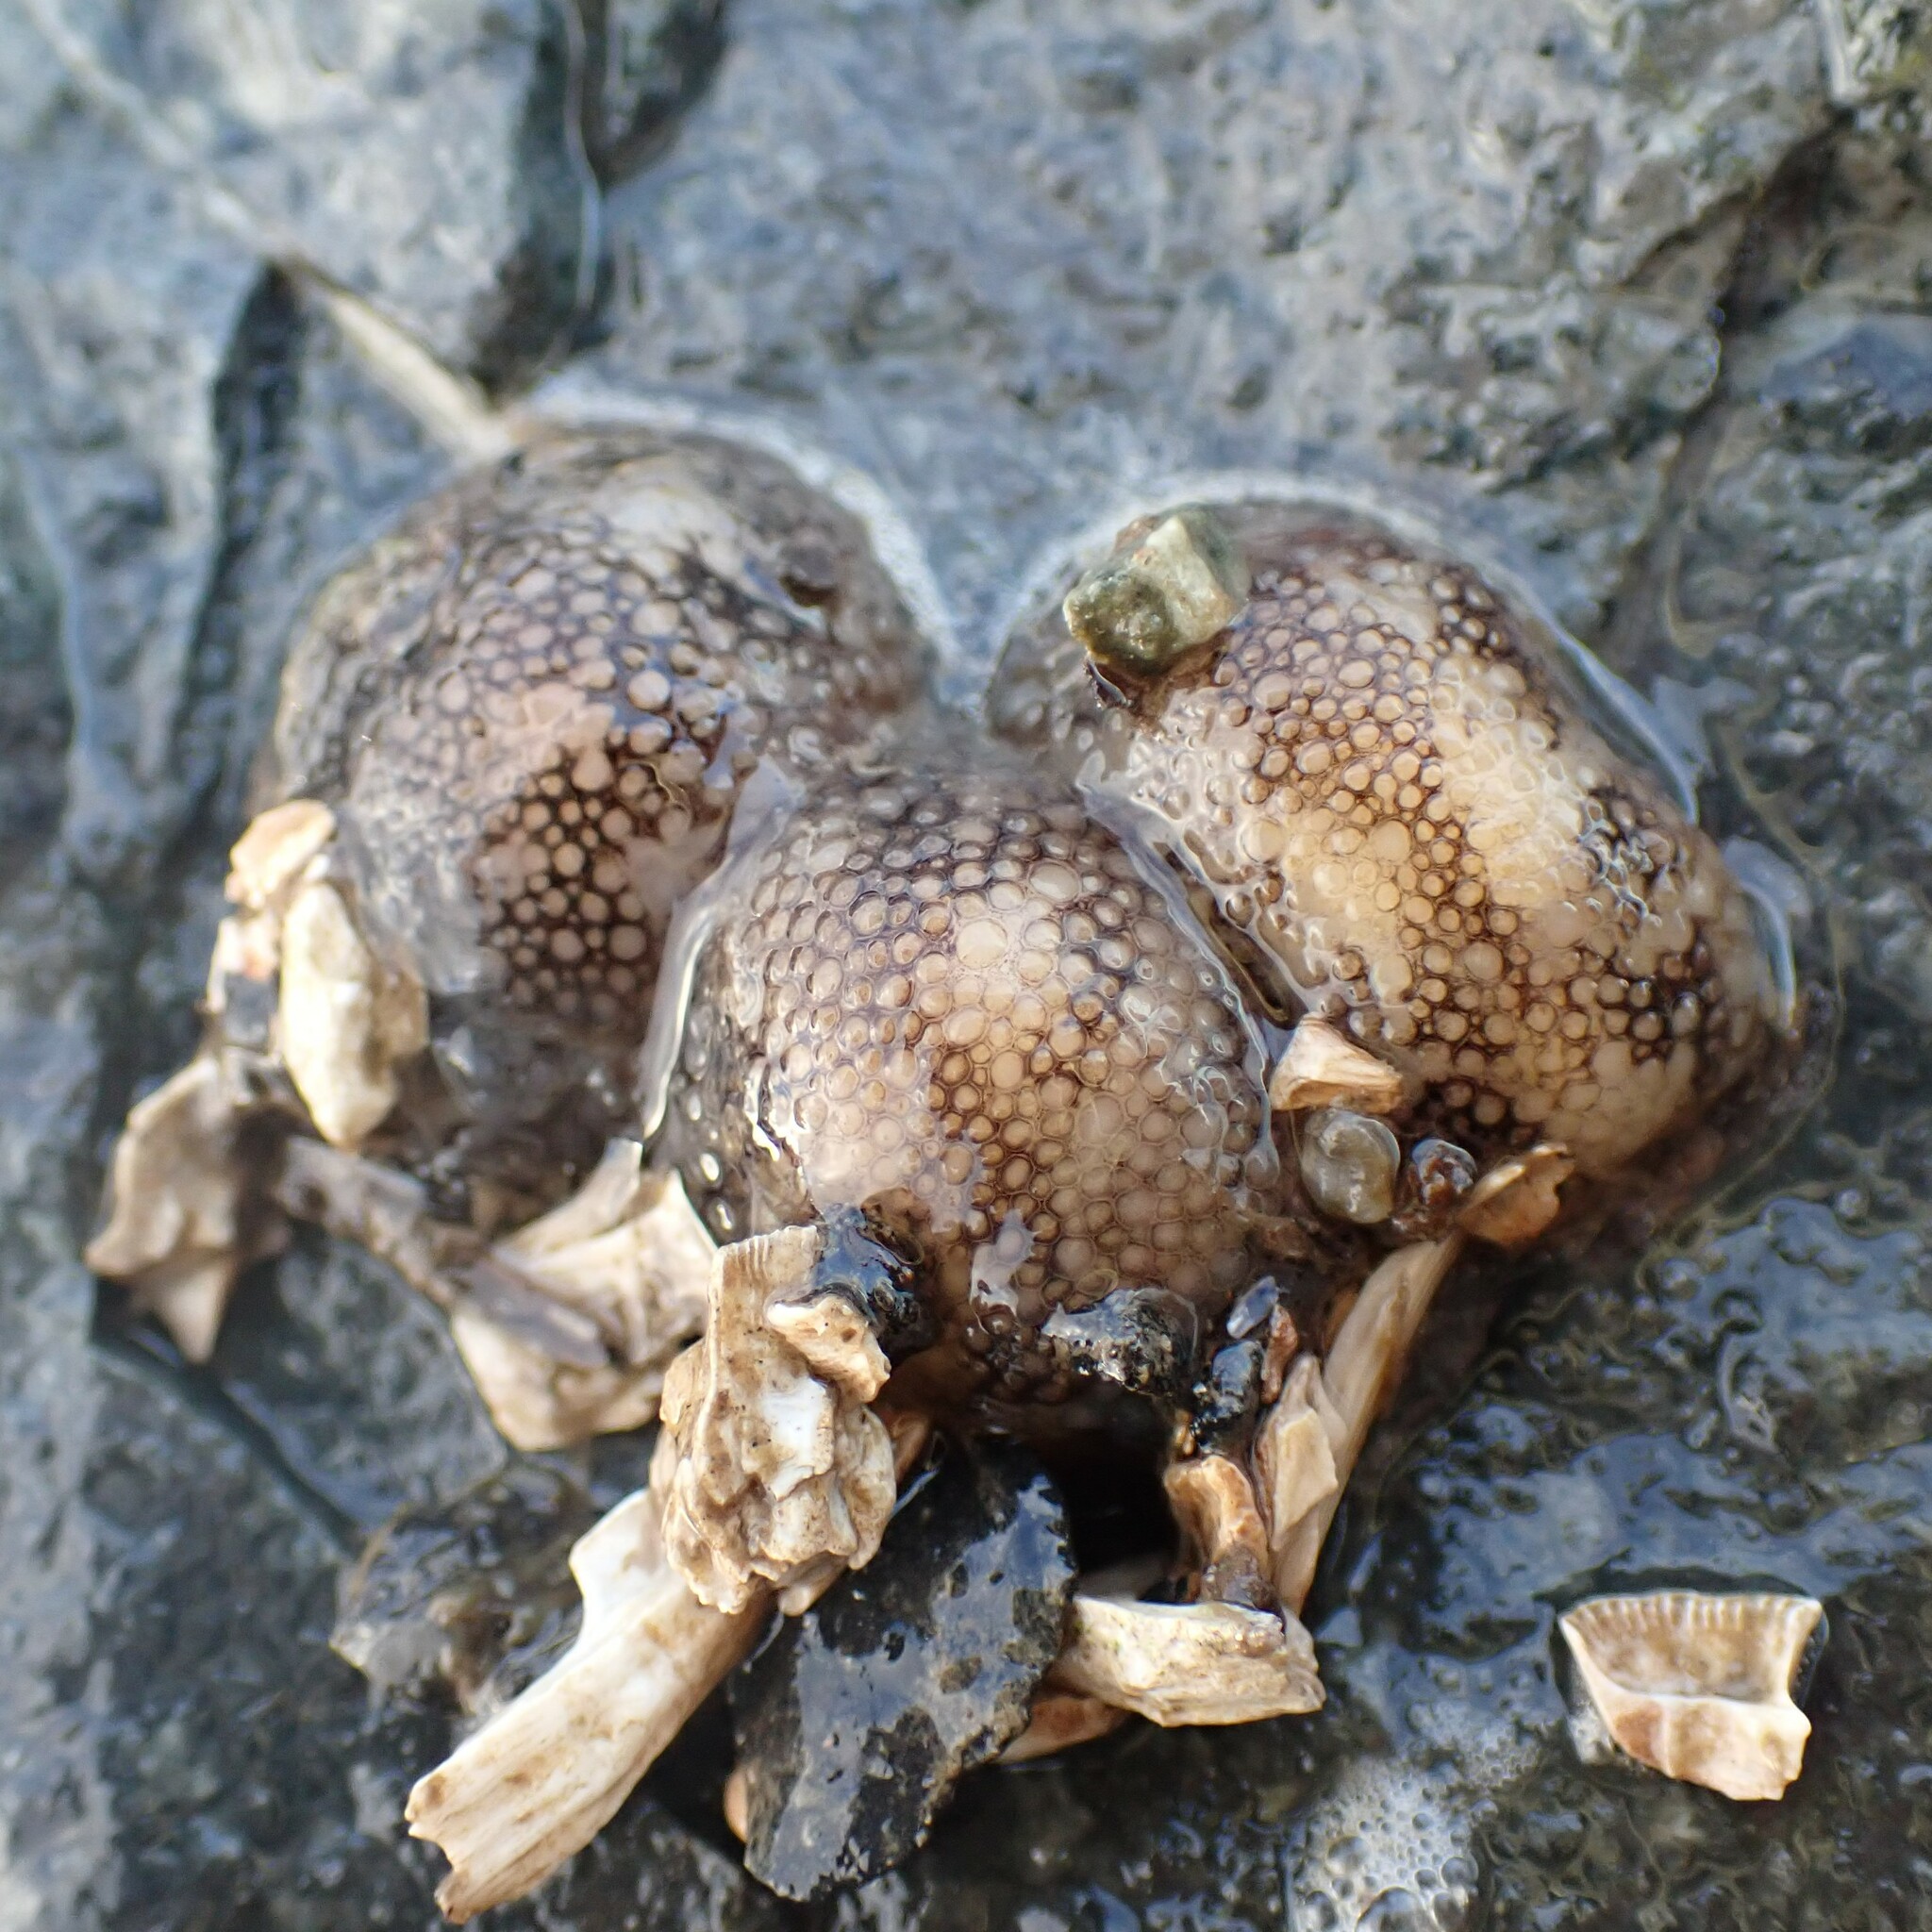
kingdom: Animalia
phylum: Mollusca
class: Gastropoda
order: Nudibranchia
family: Onchidorididae
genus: Onchidoris
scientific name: Onchidoris bilamellata
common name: Barnacle-eating onchidoris
